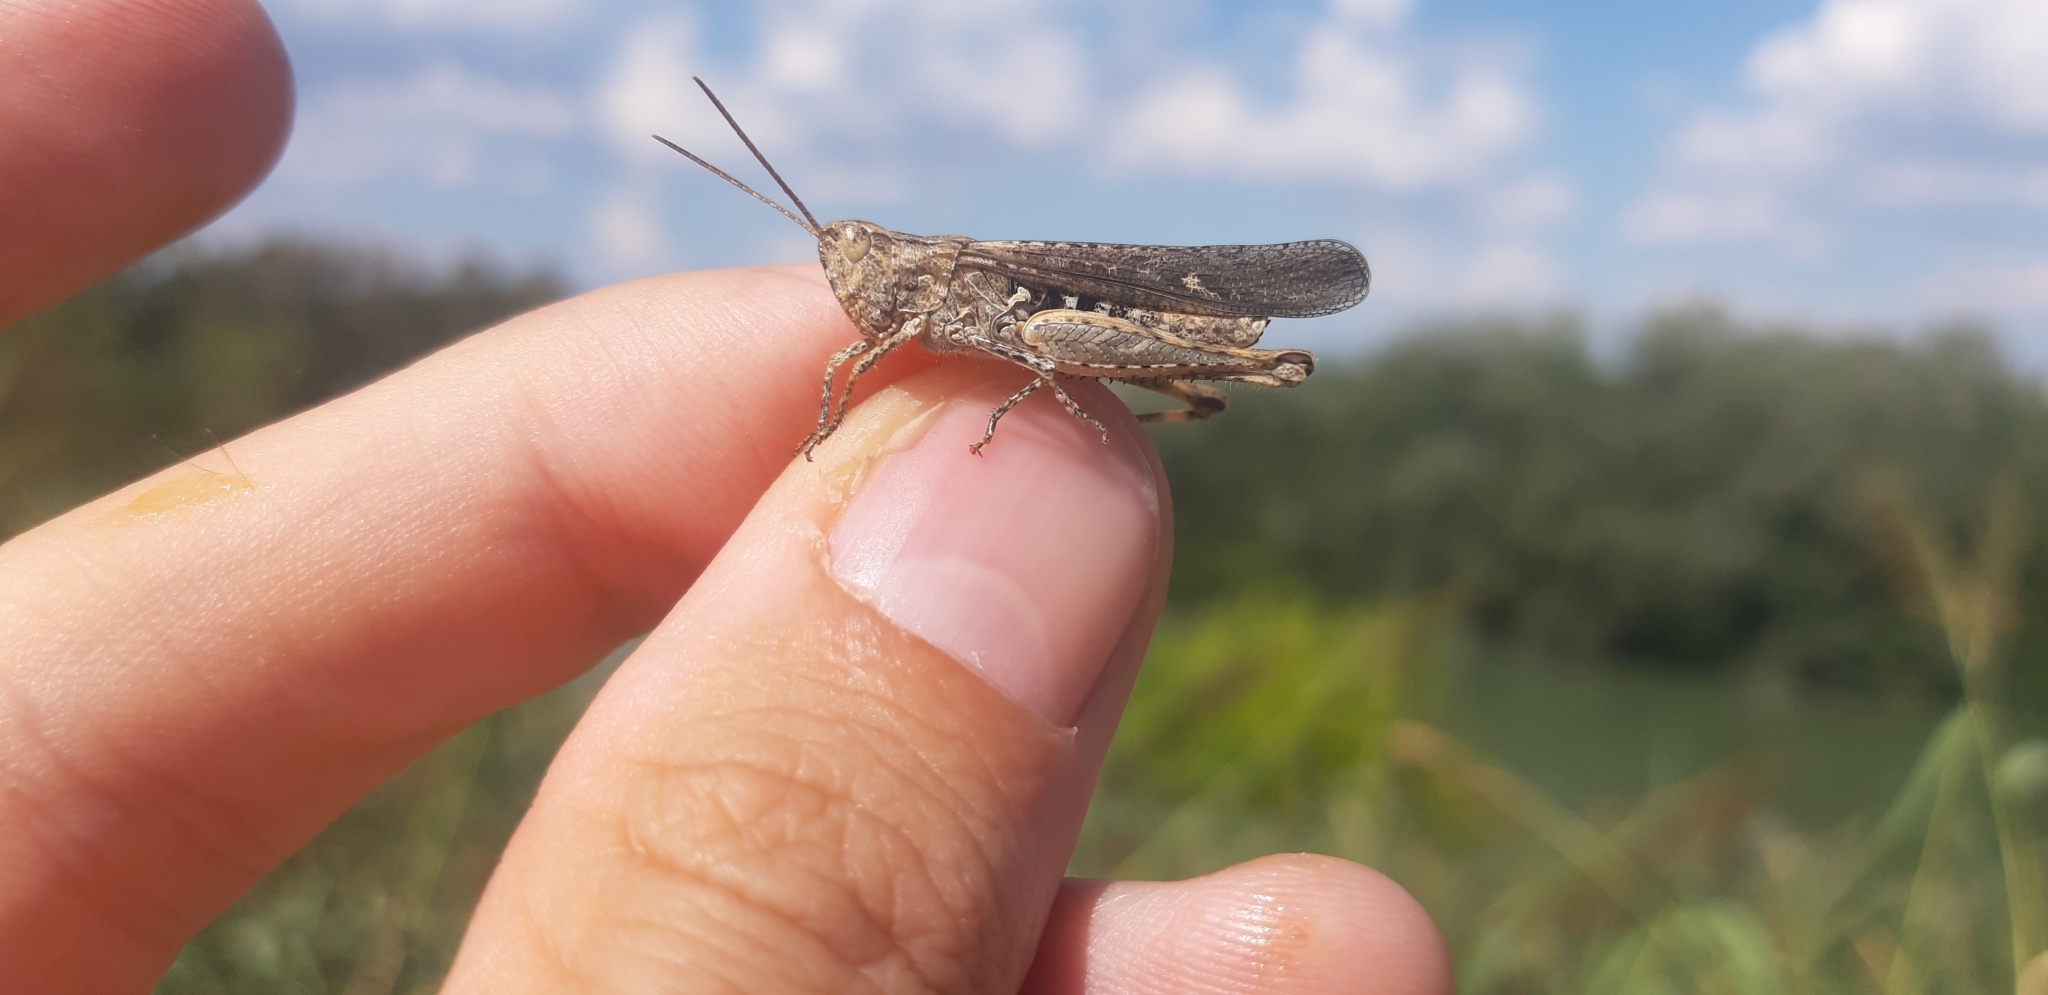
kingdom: Animalia
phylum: Arthropoda
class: Insecta
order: Orthoptera
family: Acrididae
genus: Chorthippus
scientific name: Chorthippus brunneus
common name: Field grasshopper
